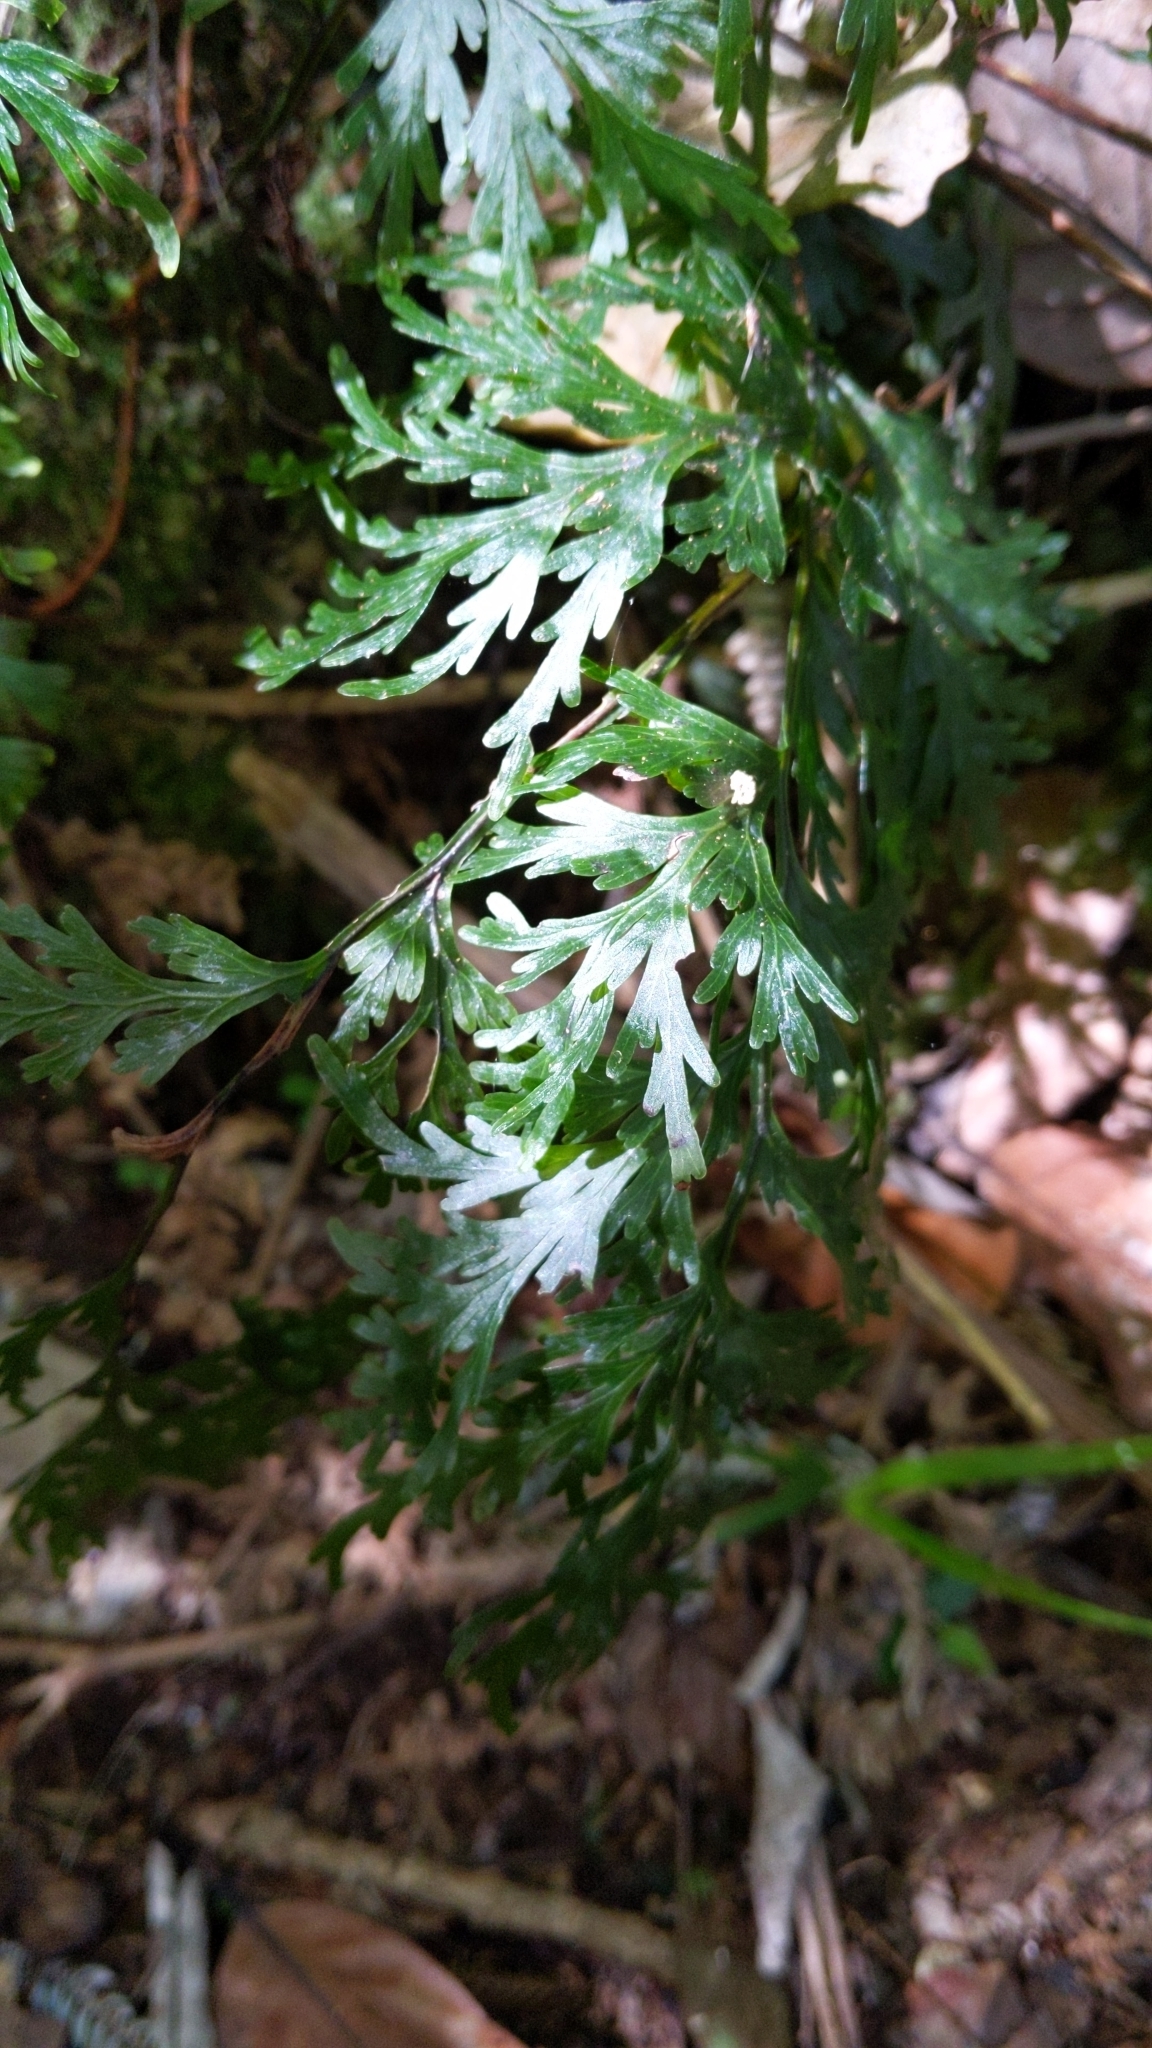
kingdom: Plantae
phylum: Tracheophyta
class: Polypodiopsida
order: Hymenophyllales
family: Hymenophyllaceae
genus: Hymenophyllum
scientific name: Hymenophyllum dilatatum
